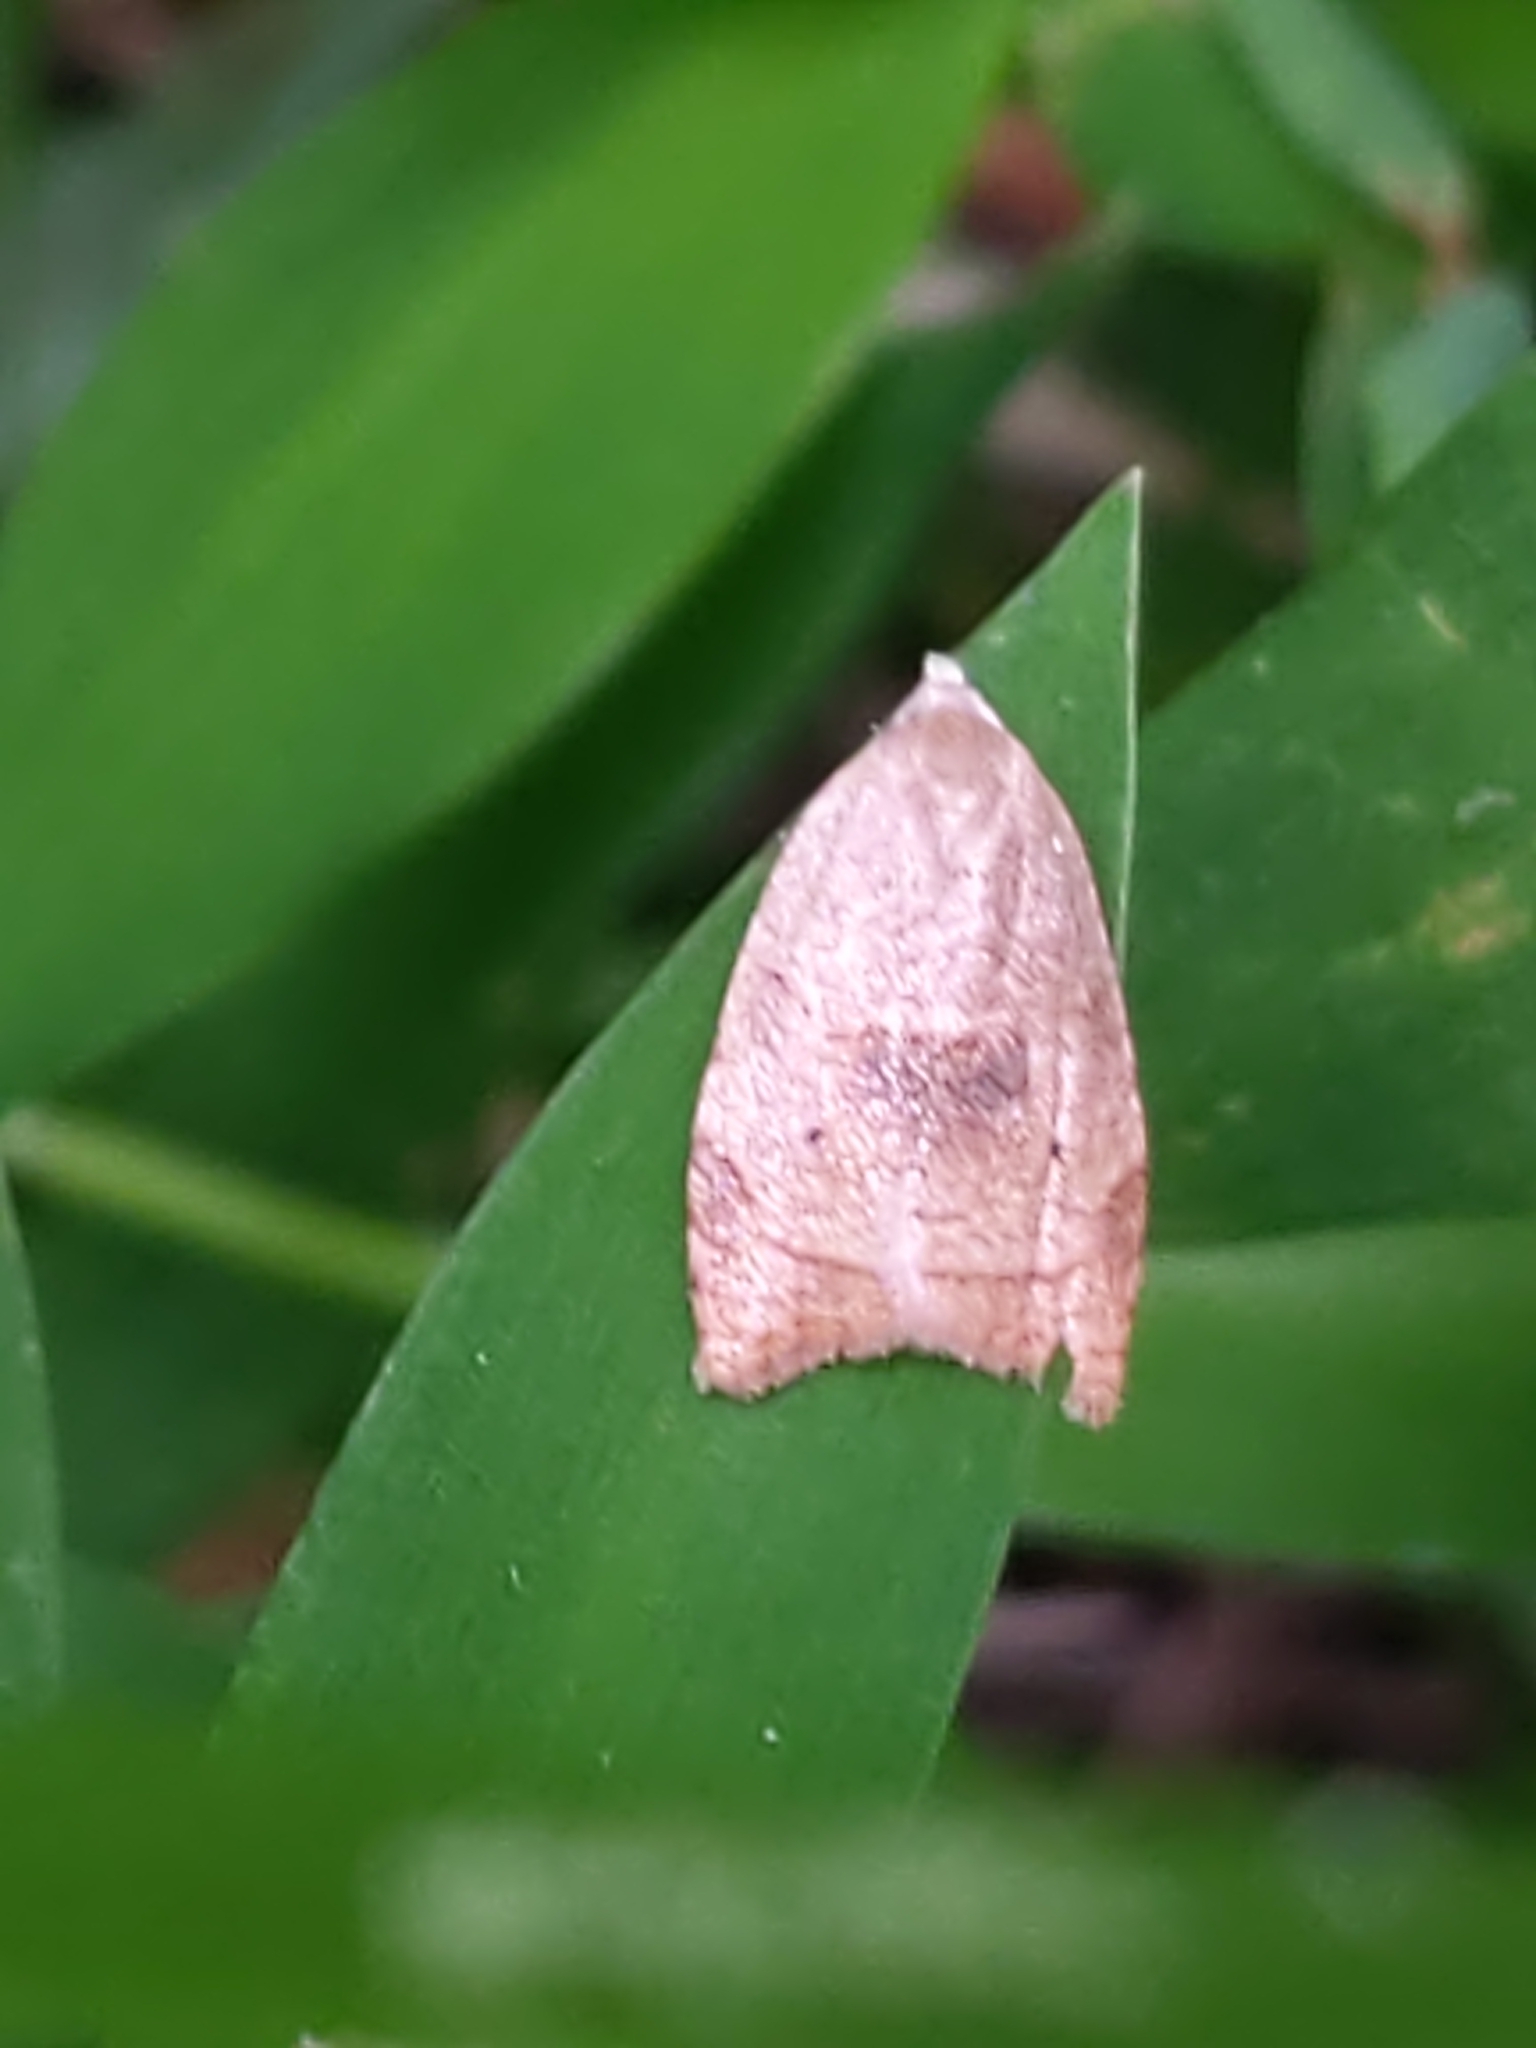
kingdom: Animalia
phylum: Arthropoda
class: Insecta
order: Lepidoptera
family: Tortricidae
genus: Coelostathma
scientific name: Coelostathma discopunctana
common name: Batman moth
